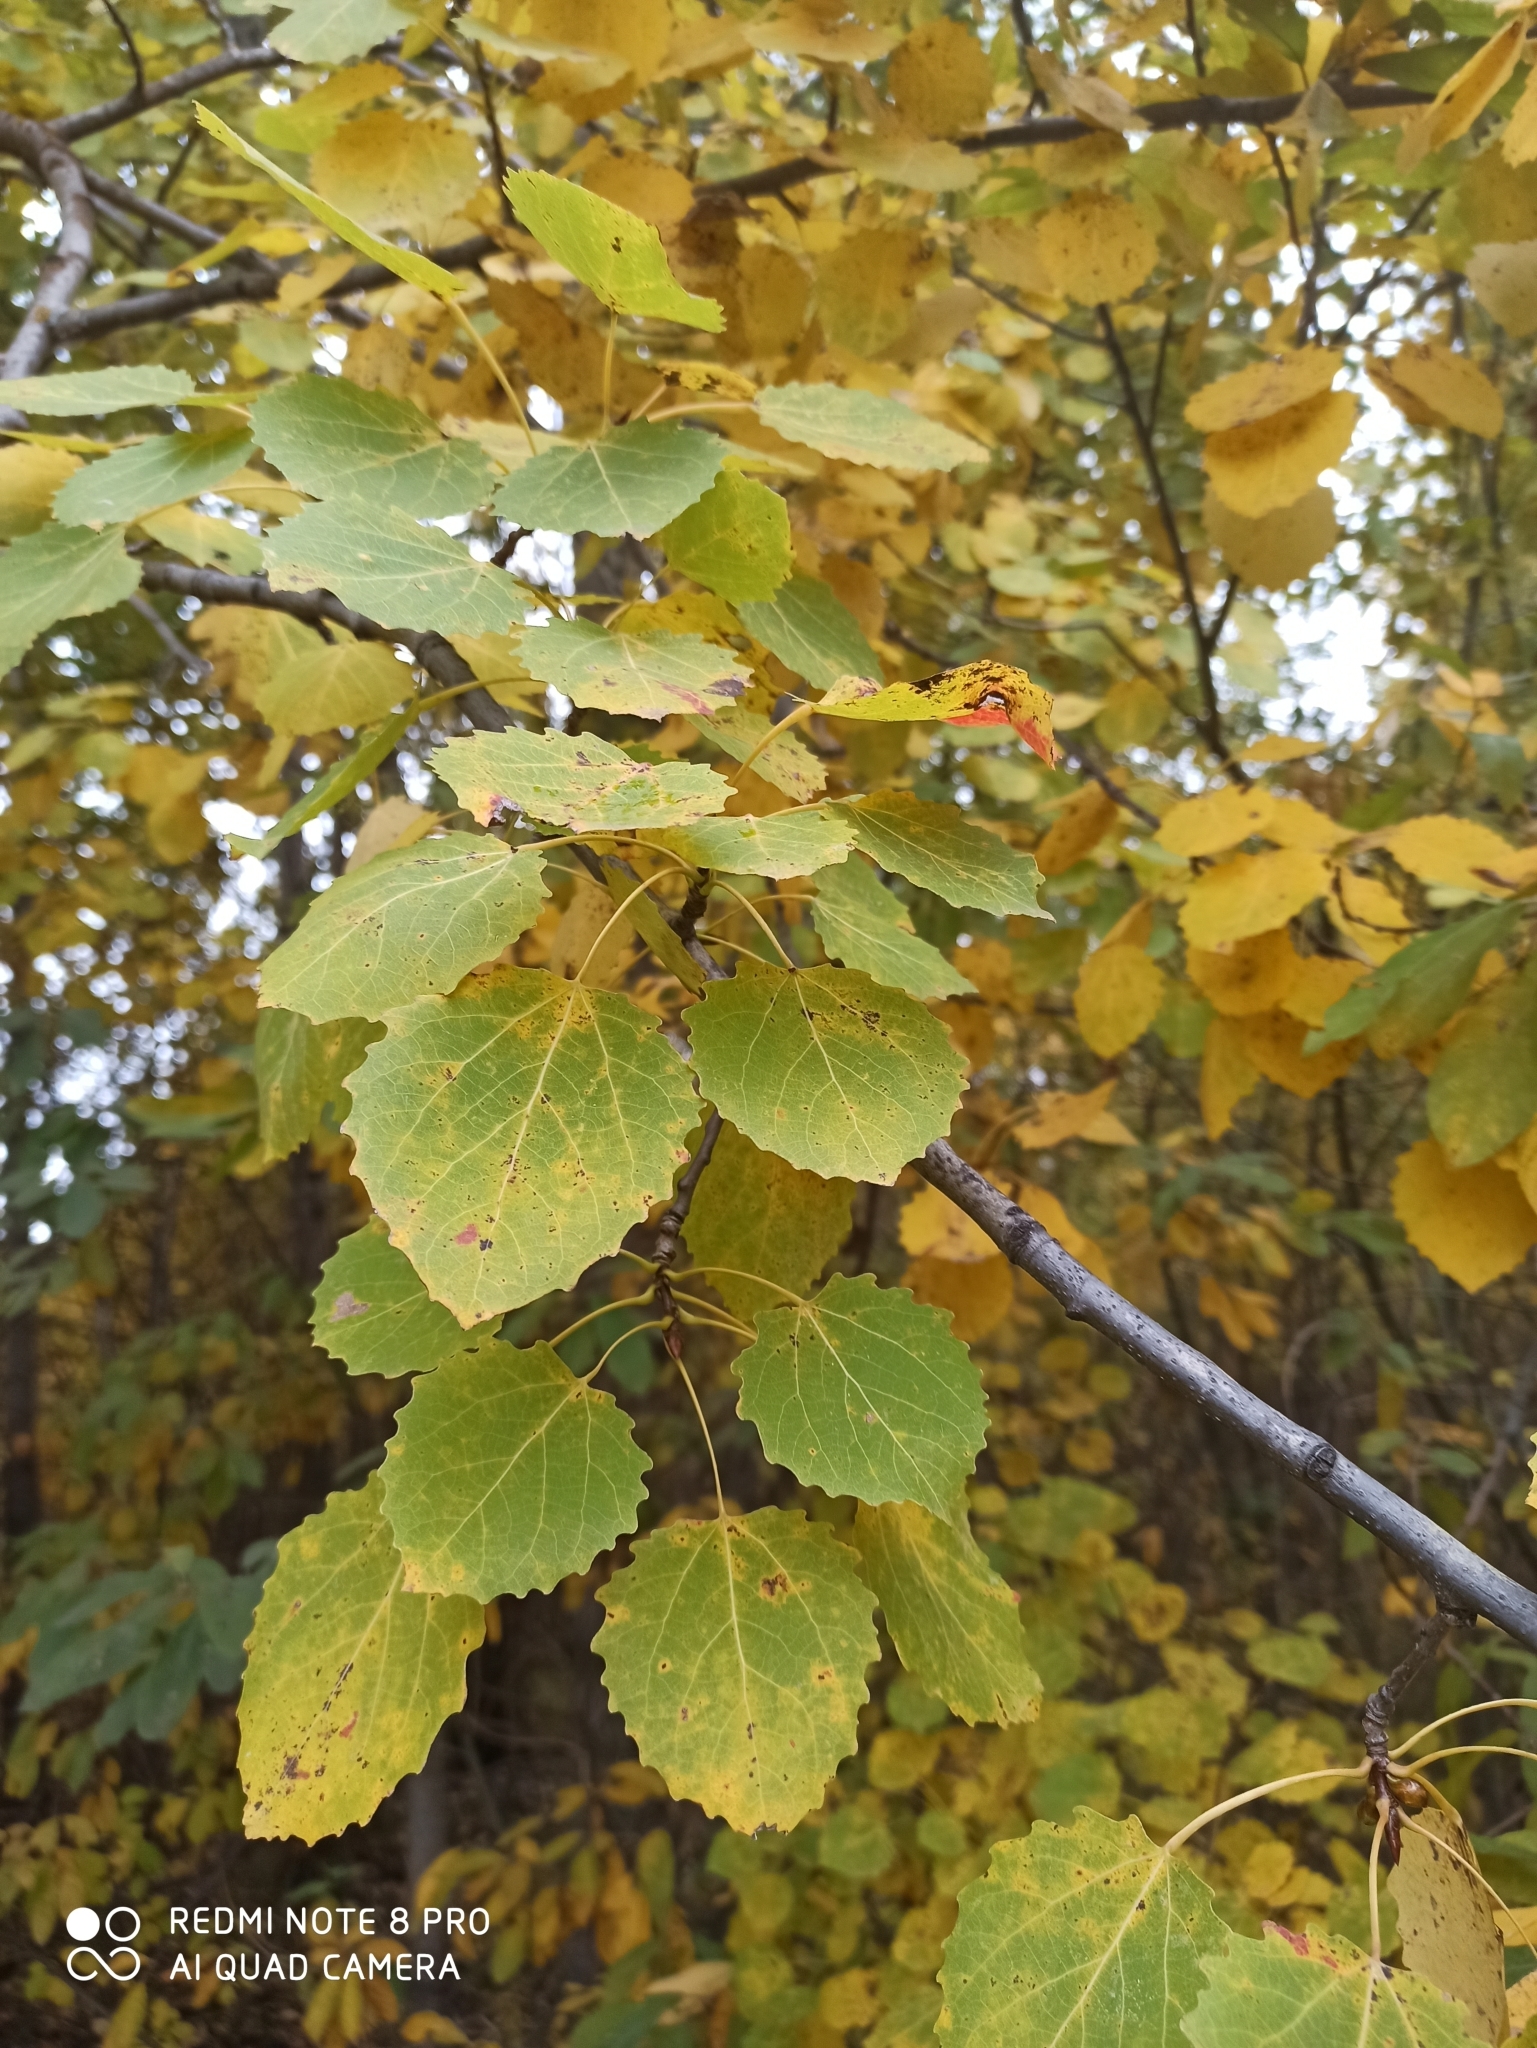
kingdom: Plantae
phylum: Tracheophyta
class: Magnoliopsida
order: Malpighiales
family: Salicaceae
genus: Populus
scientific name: Populus tremula
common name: European aspen
